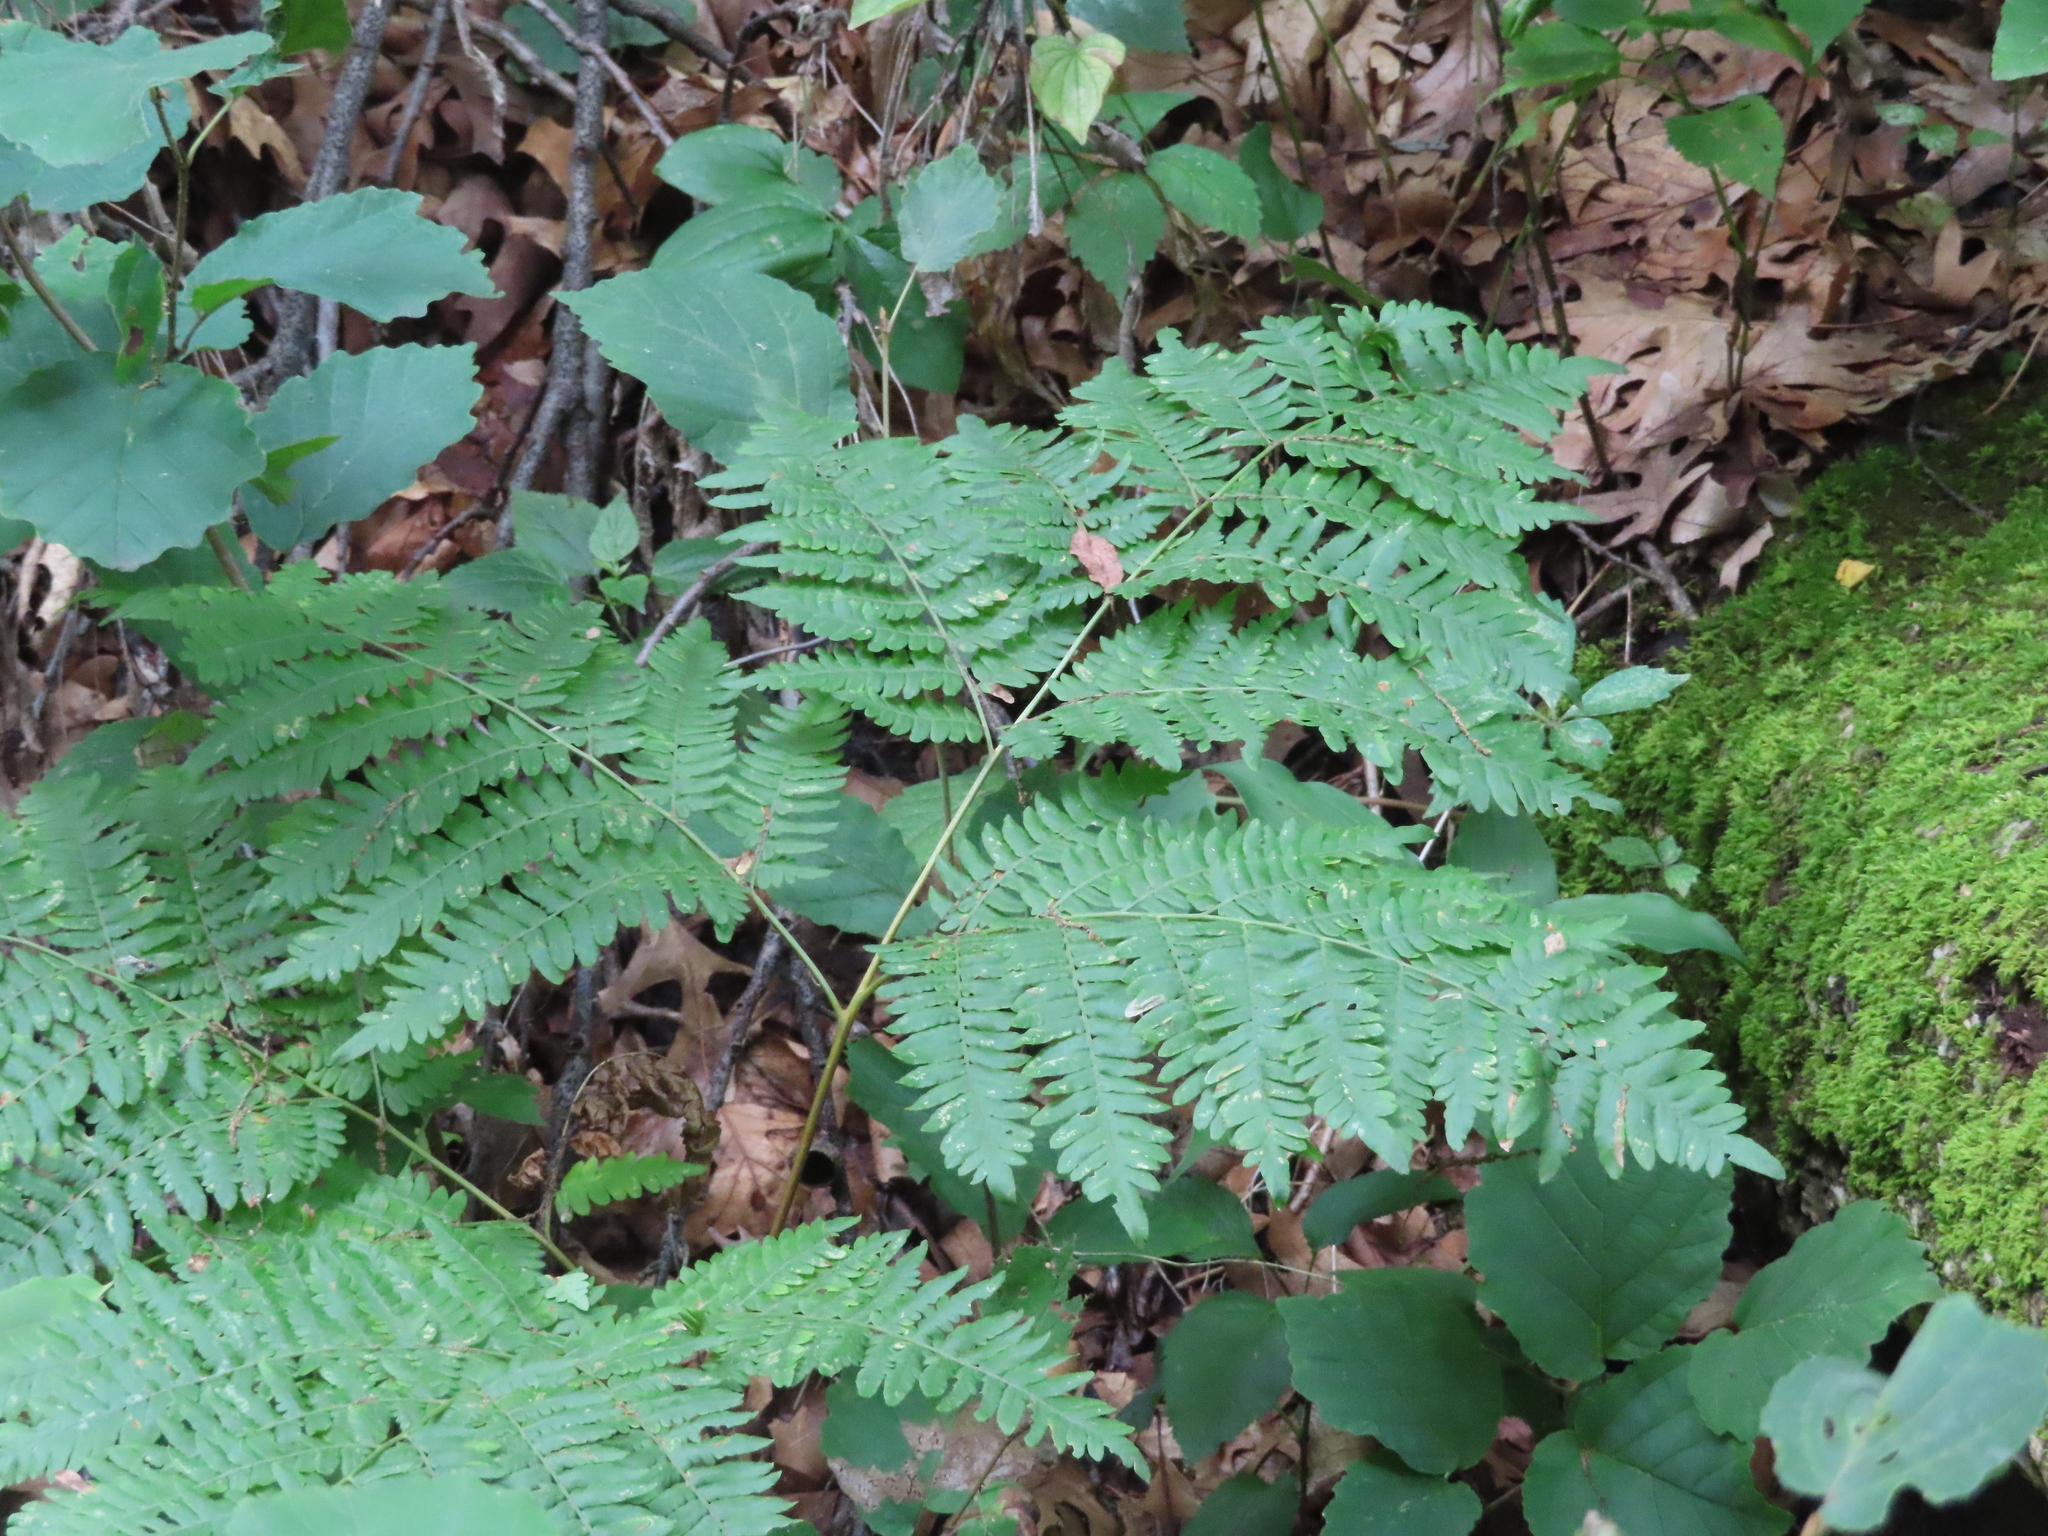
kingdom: Plantae
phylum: Tracheophyta
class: Polypodiopsida
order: Polypodiales
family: Dennstaedtiaceae
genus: Pteridium
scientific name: Pteridium aquilinum
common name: Bracken
